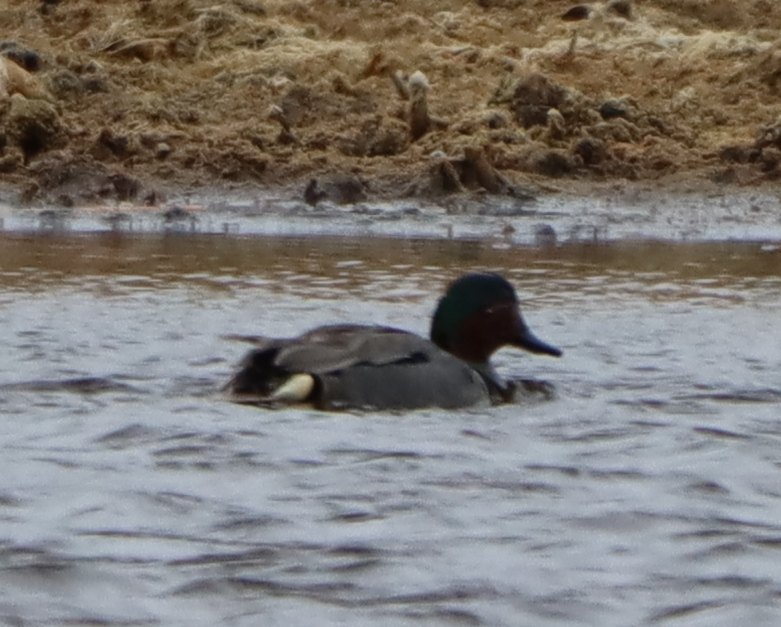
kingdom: Animalia
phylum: Chordata
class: Aves
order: Anseriformes
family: Anatidae
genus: Anas
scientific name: Anas crecca
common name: Eurasian teal
